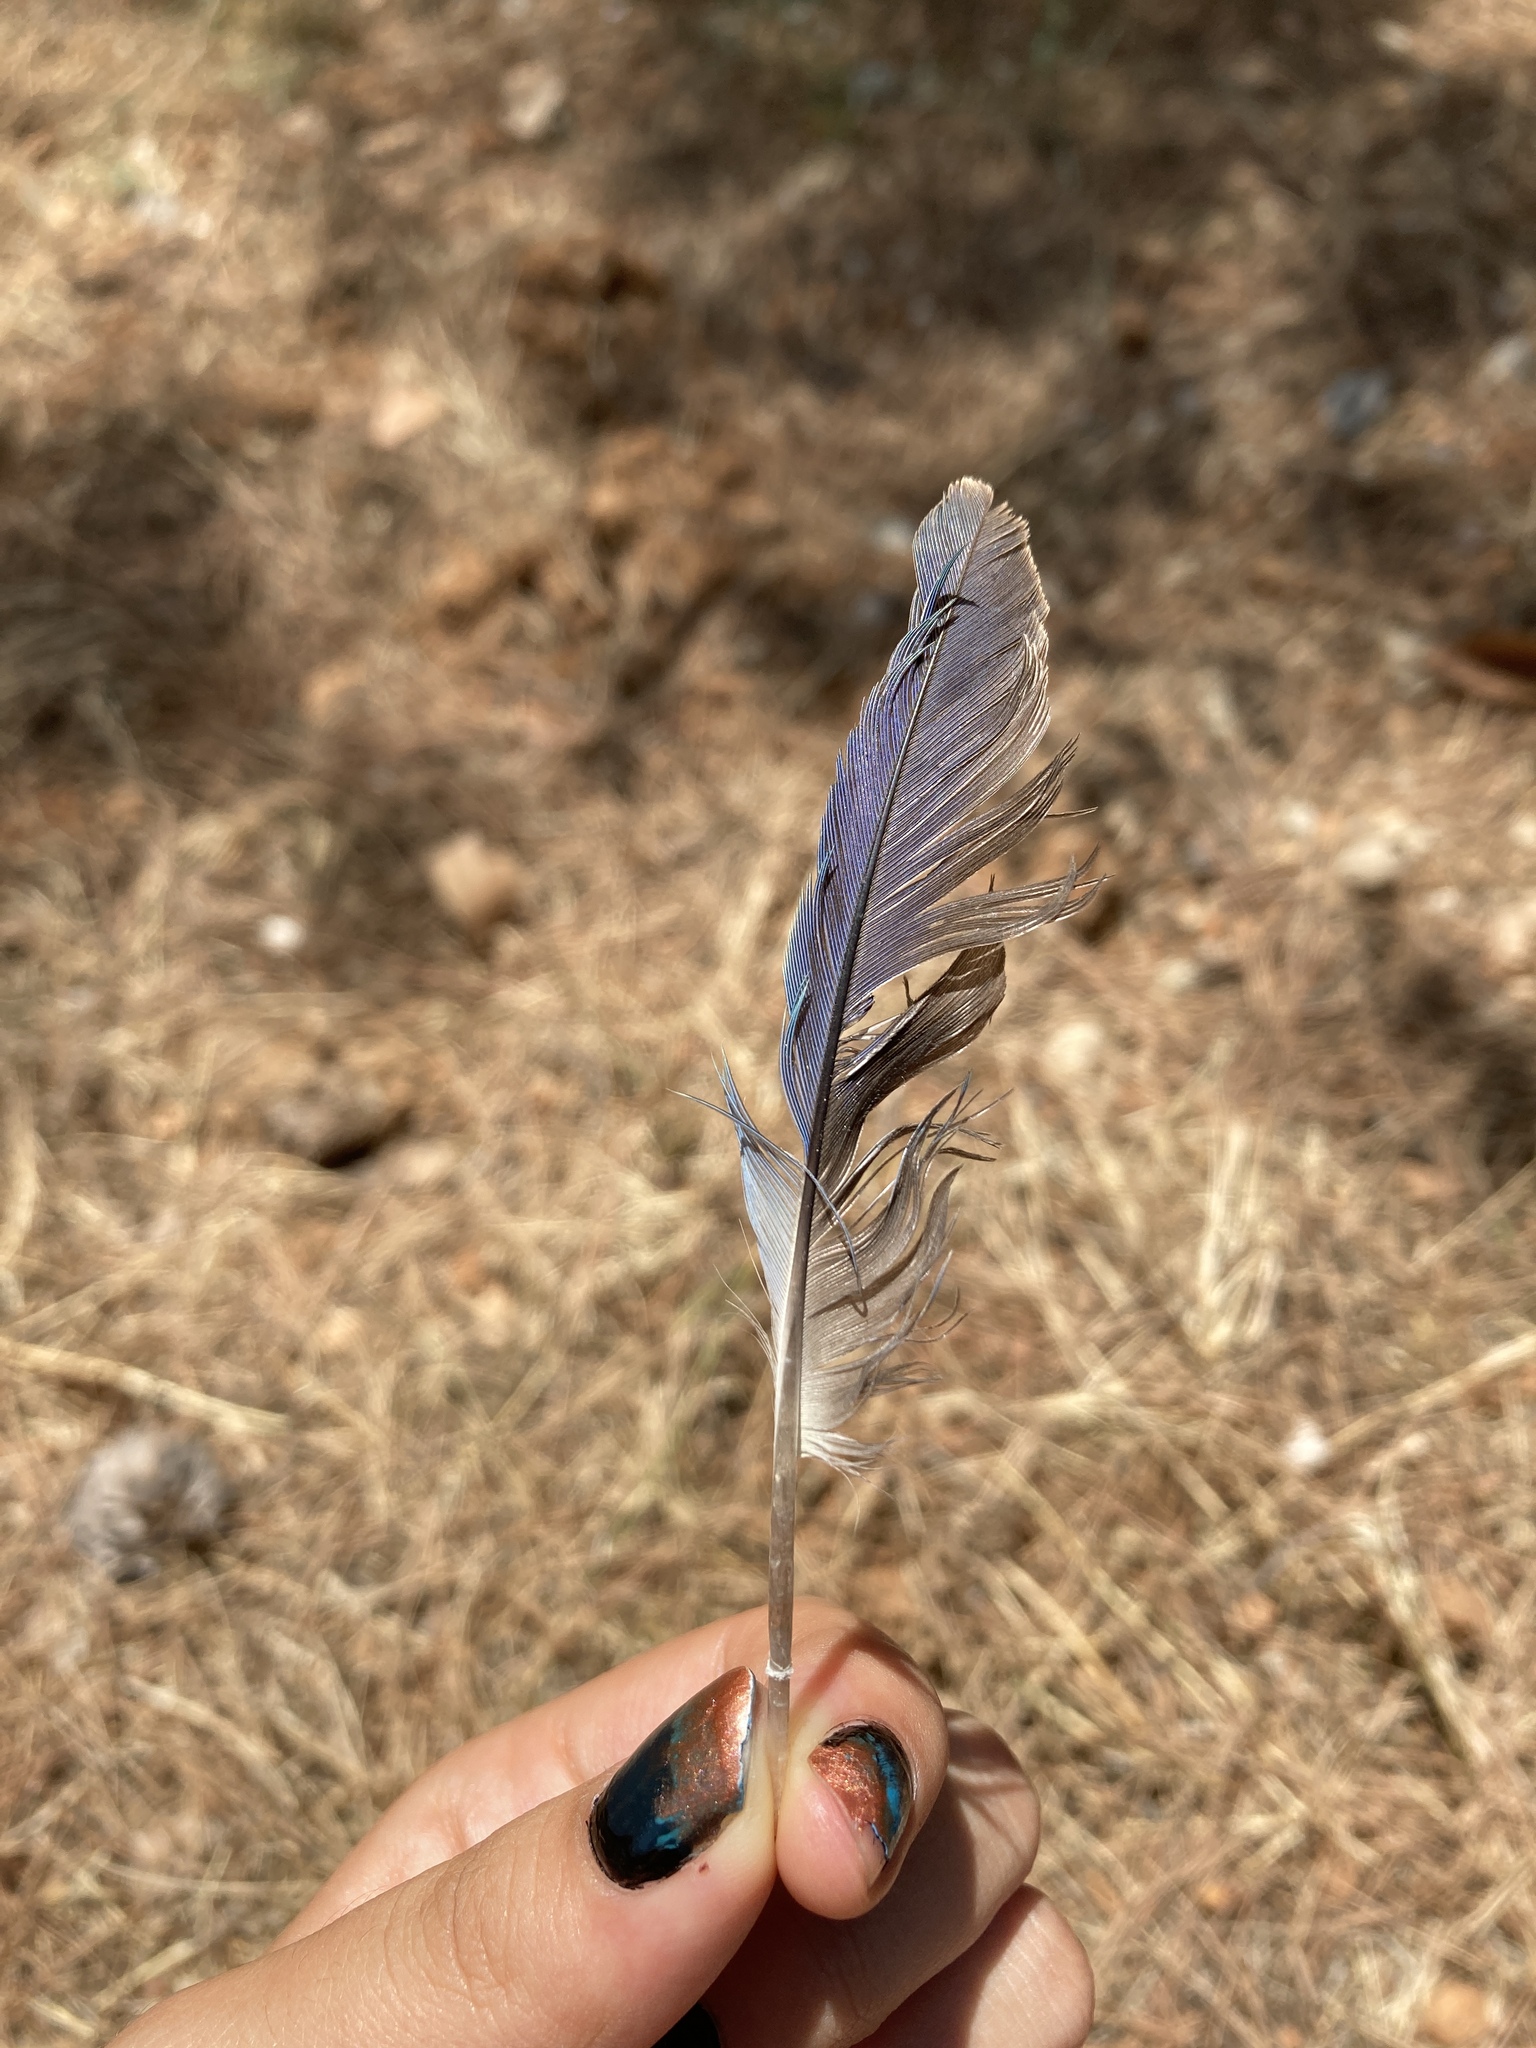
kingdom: Animalia
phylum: Chordata
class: Aves
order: Psittaciformes
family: Psittacidae
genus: Myiopsitta
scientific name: Myiopsitta monachus
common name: Monk parakeet
